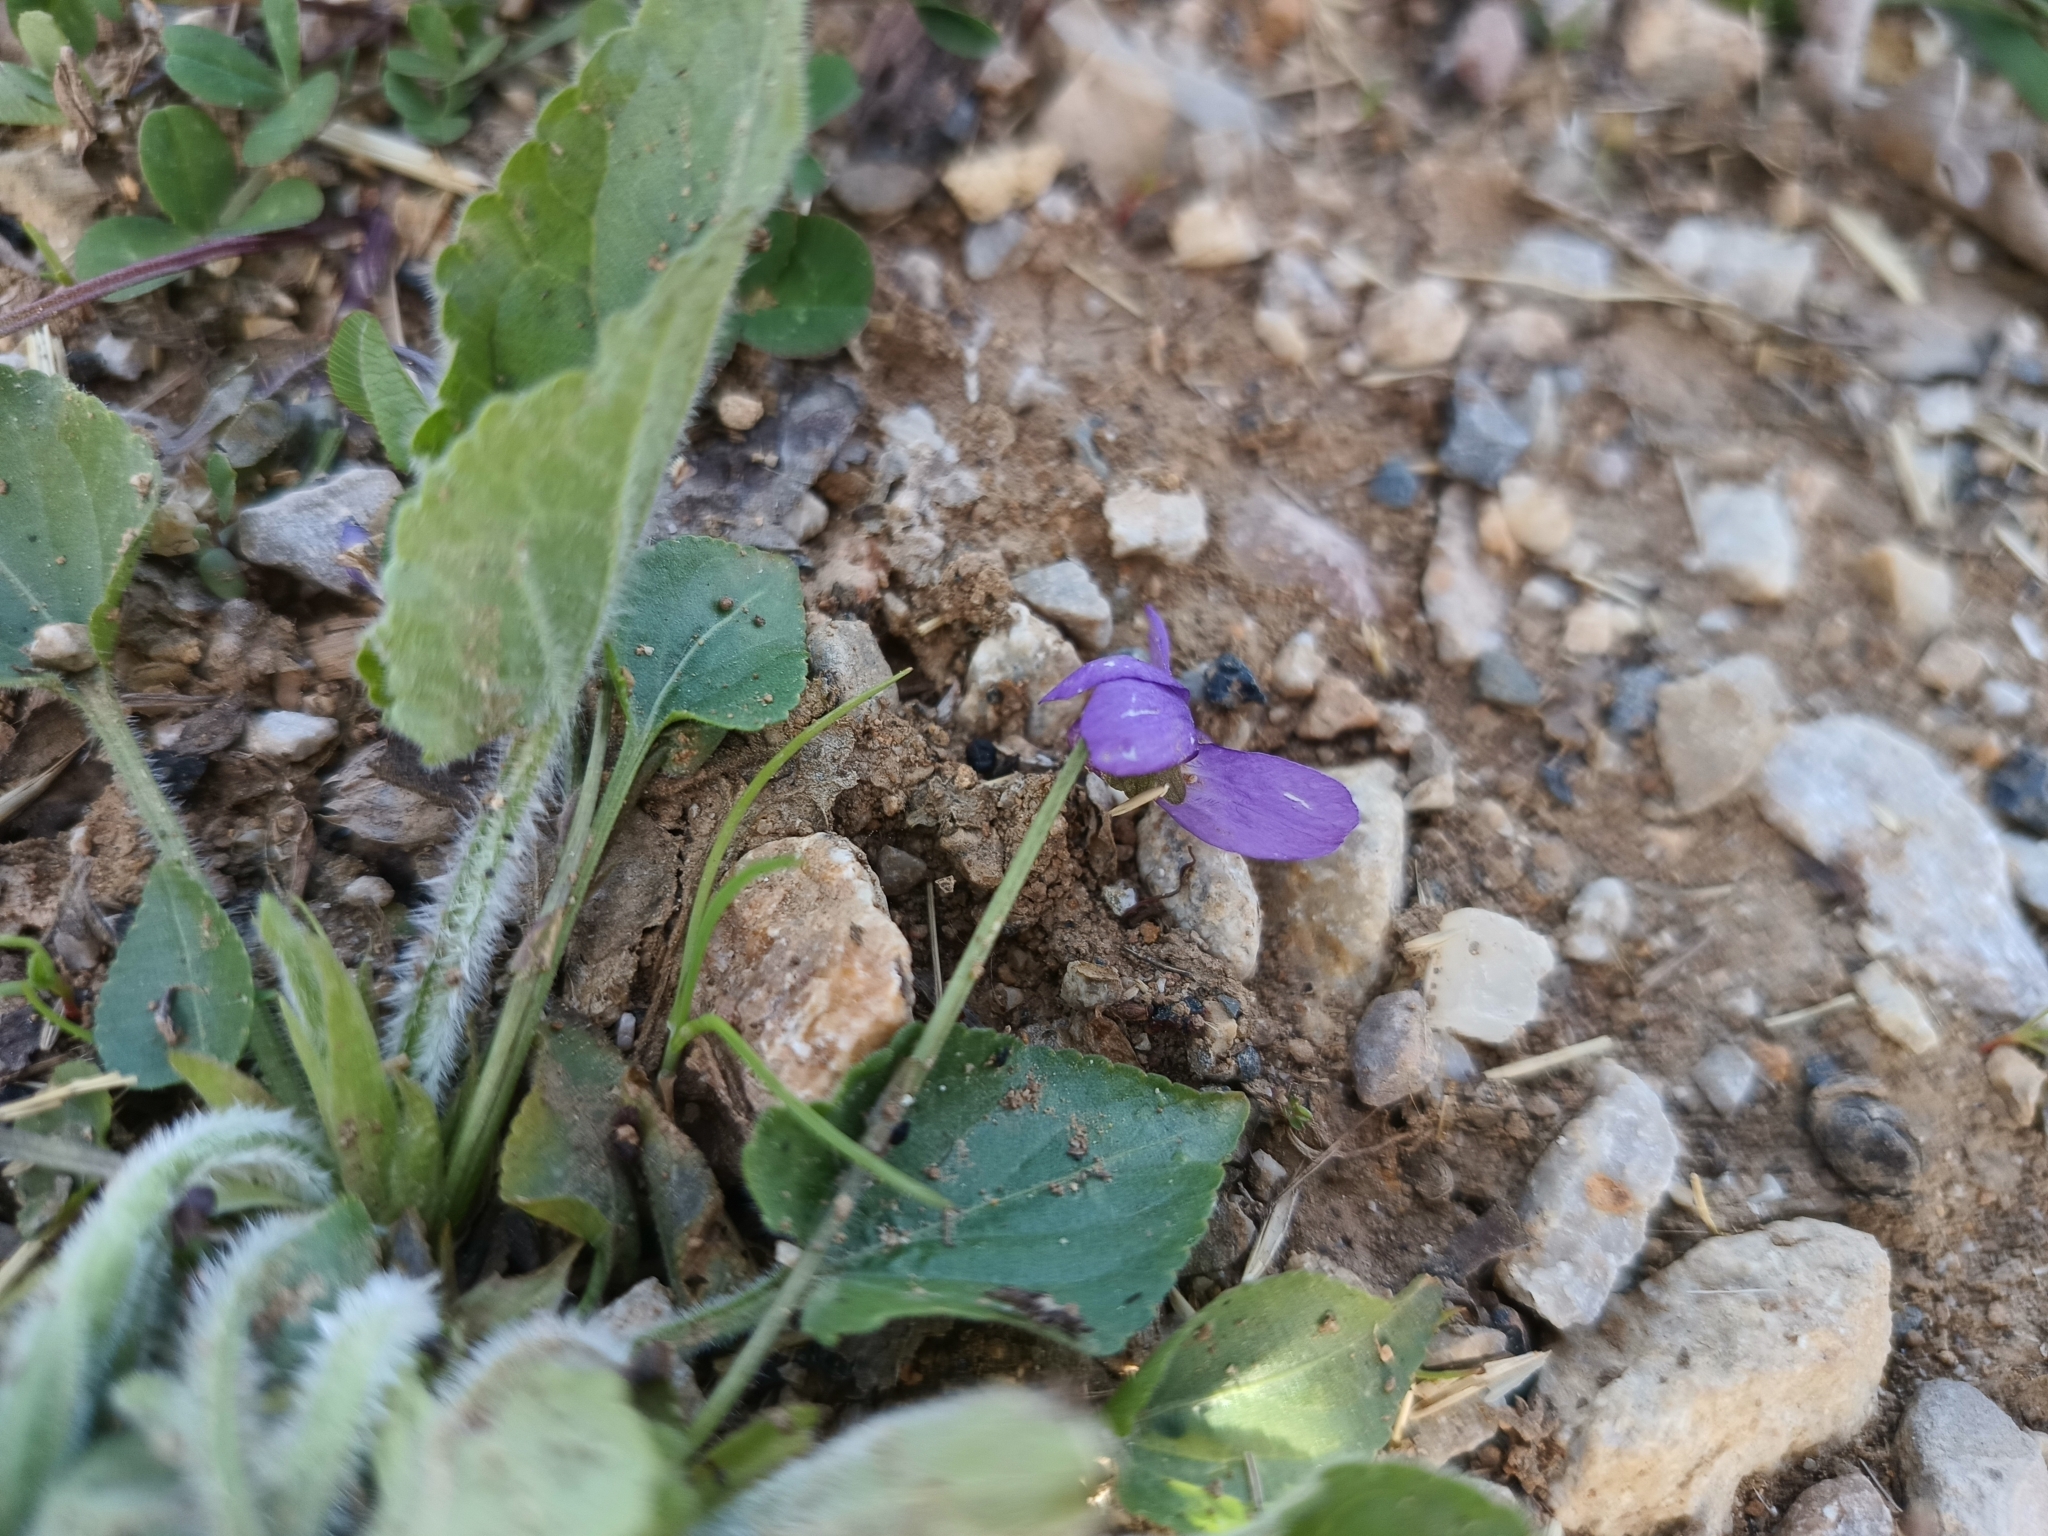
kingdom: Plantae
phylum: Tracheophyta
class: Magnoliopsida
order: Malpighiales
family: Violaceae
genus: Viola
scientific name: Viola hirta
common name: Hairy violet
